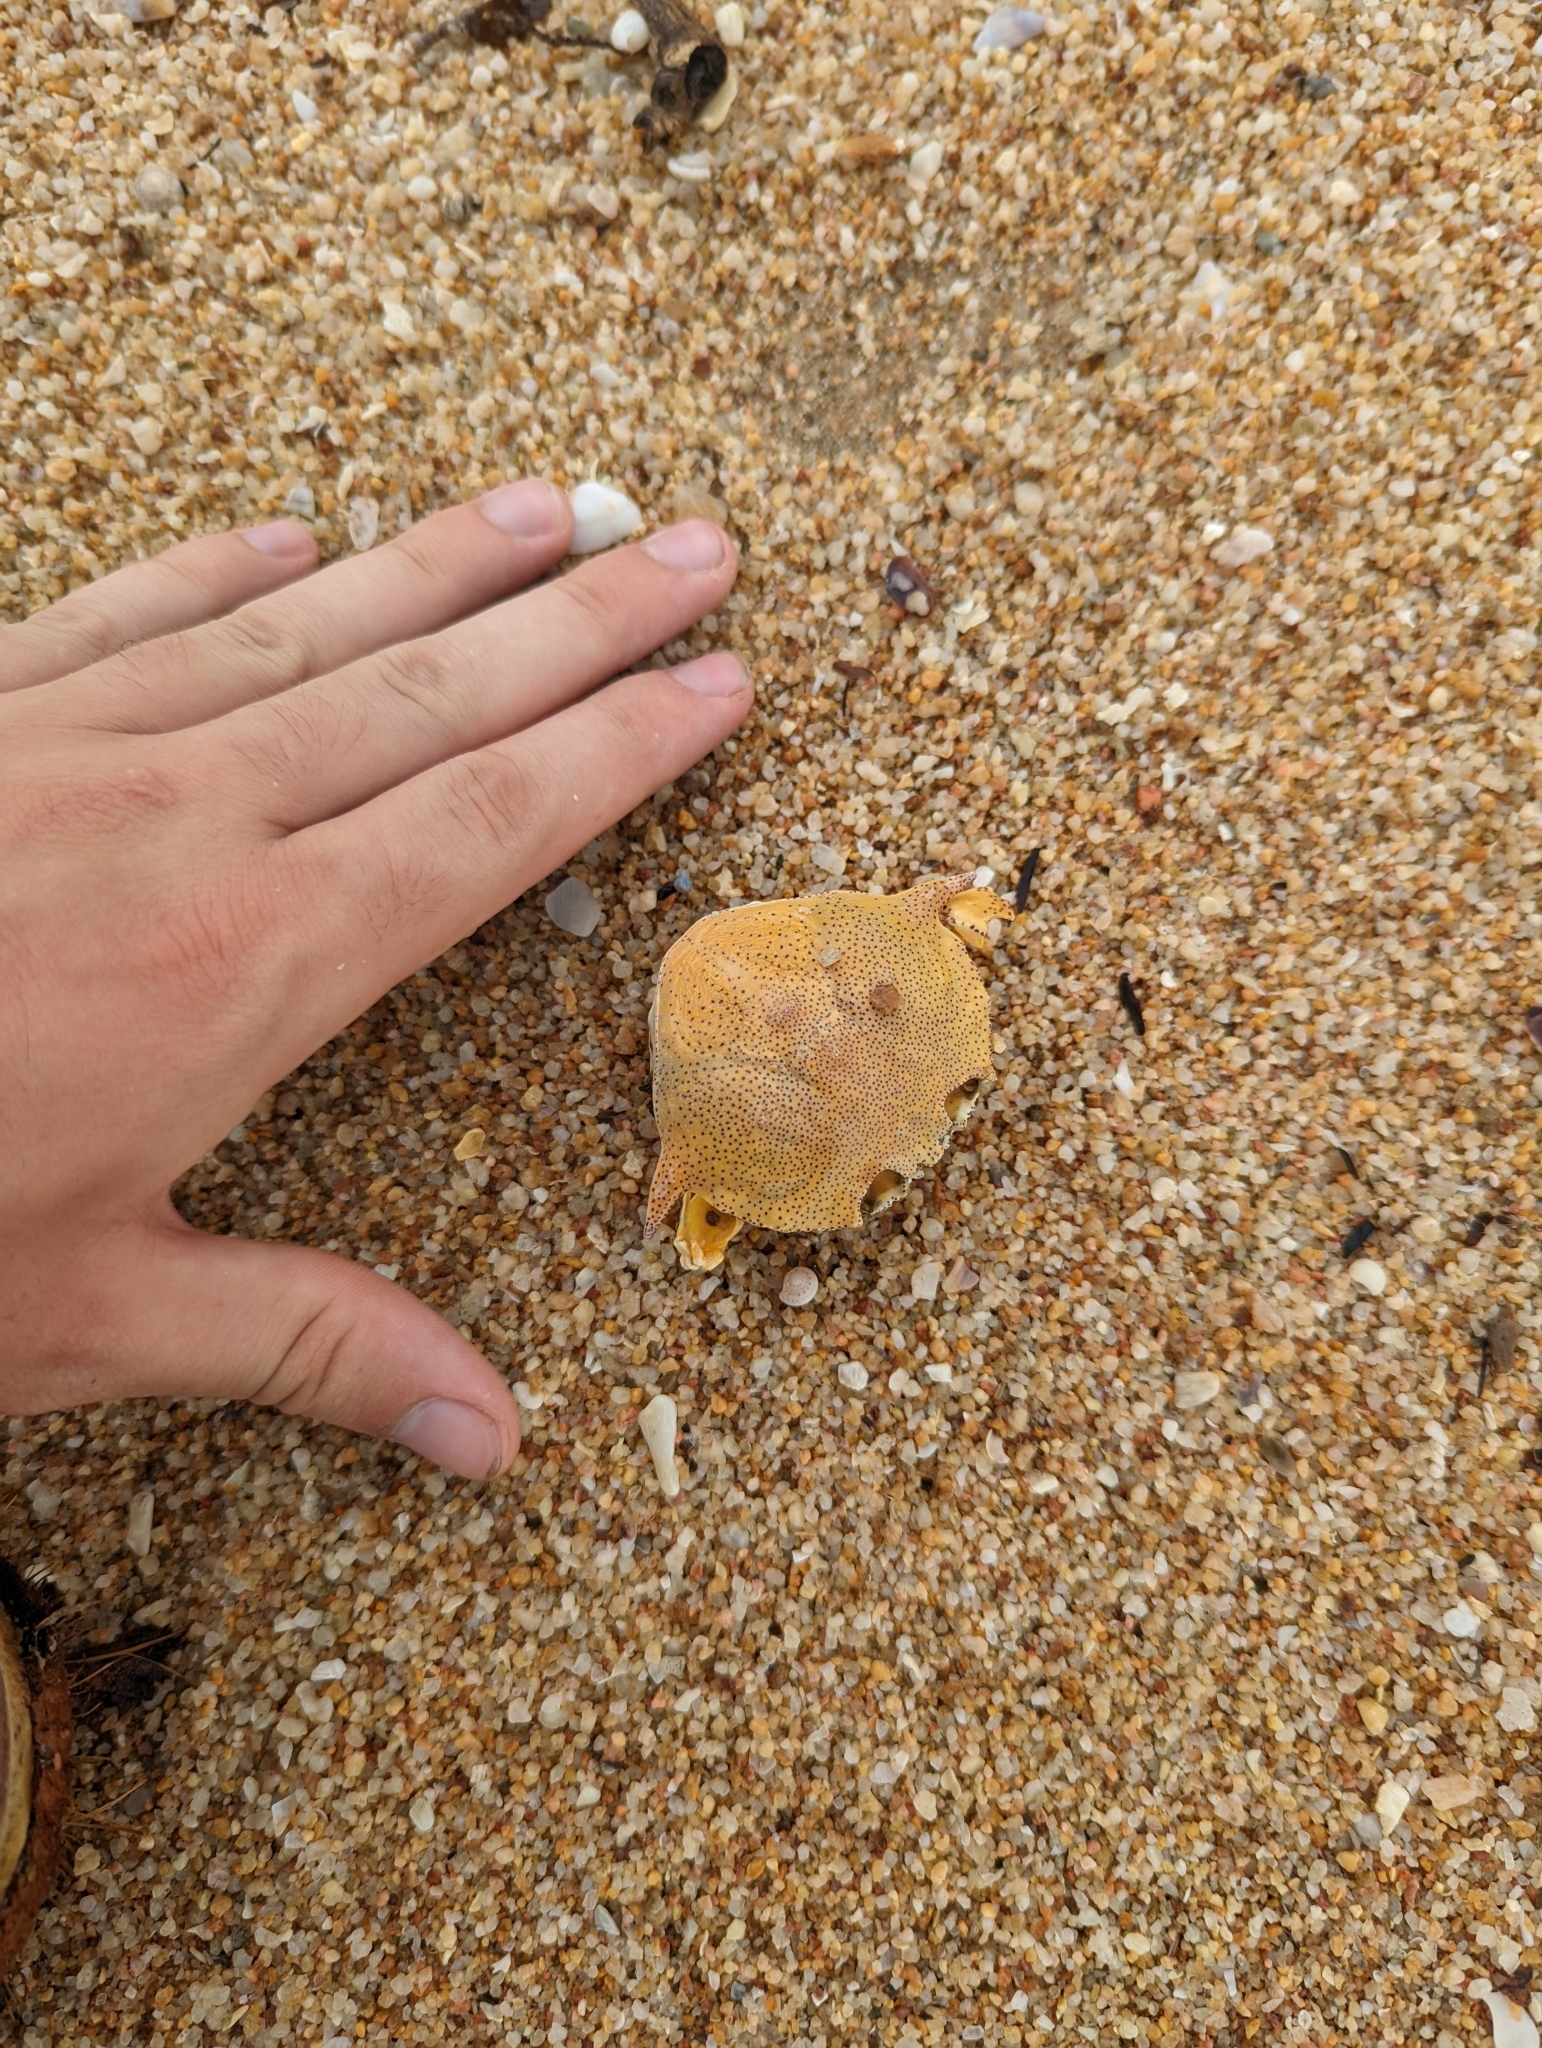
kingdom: Animalia
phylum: Arthropoda
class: Malacostraca
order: Decapoda
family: Matutidae
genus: Matuta
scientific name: Matuta victor
